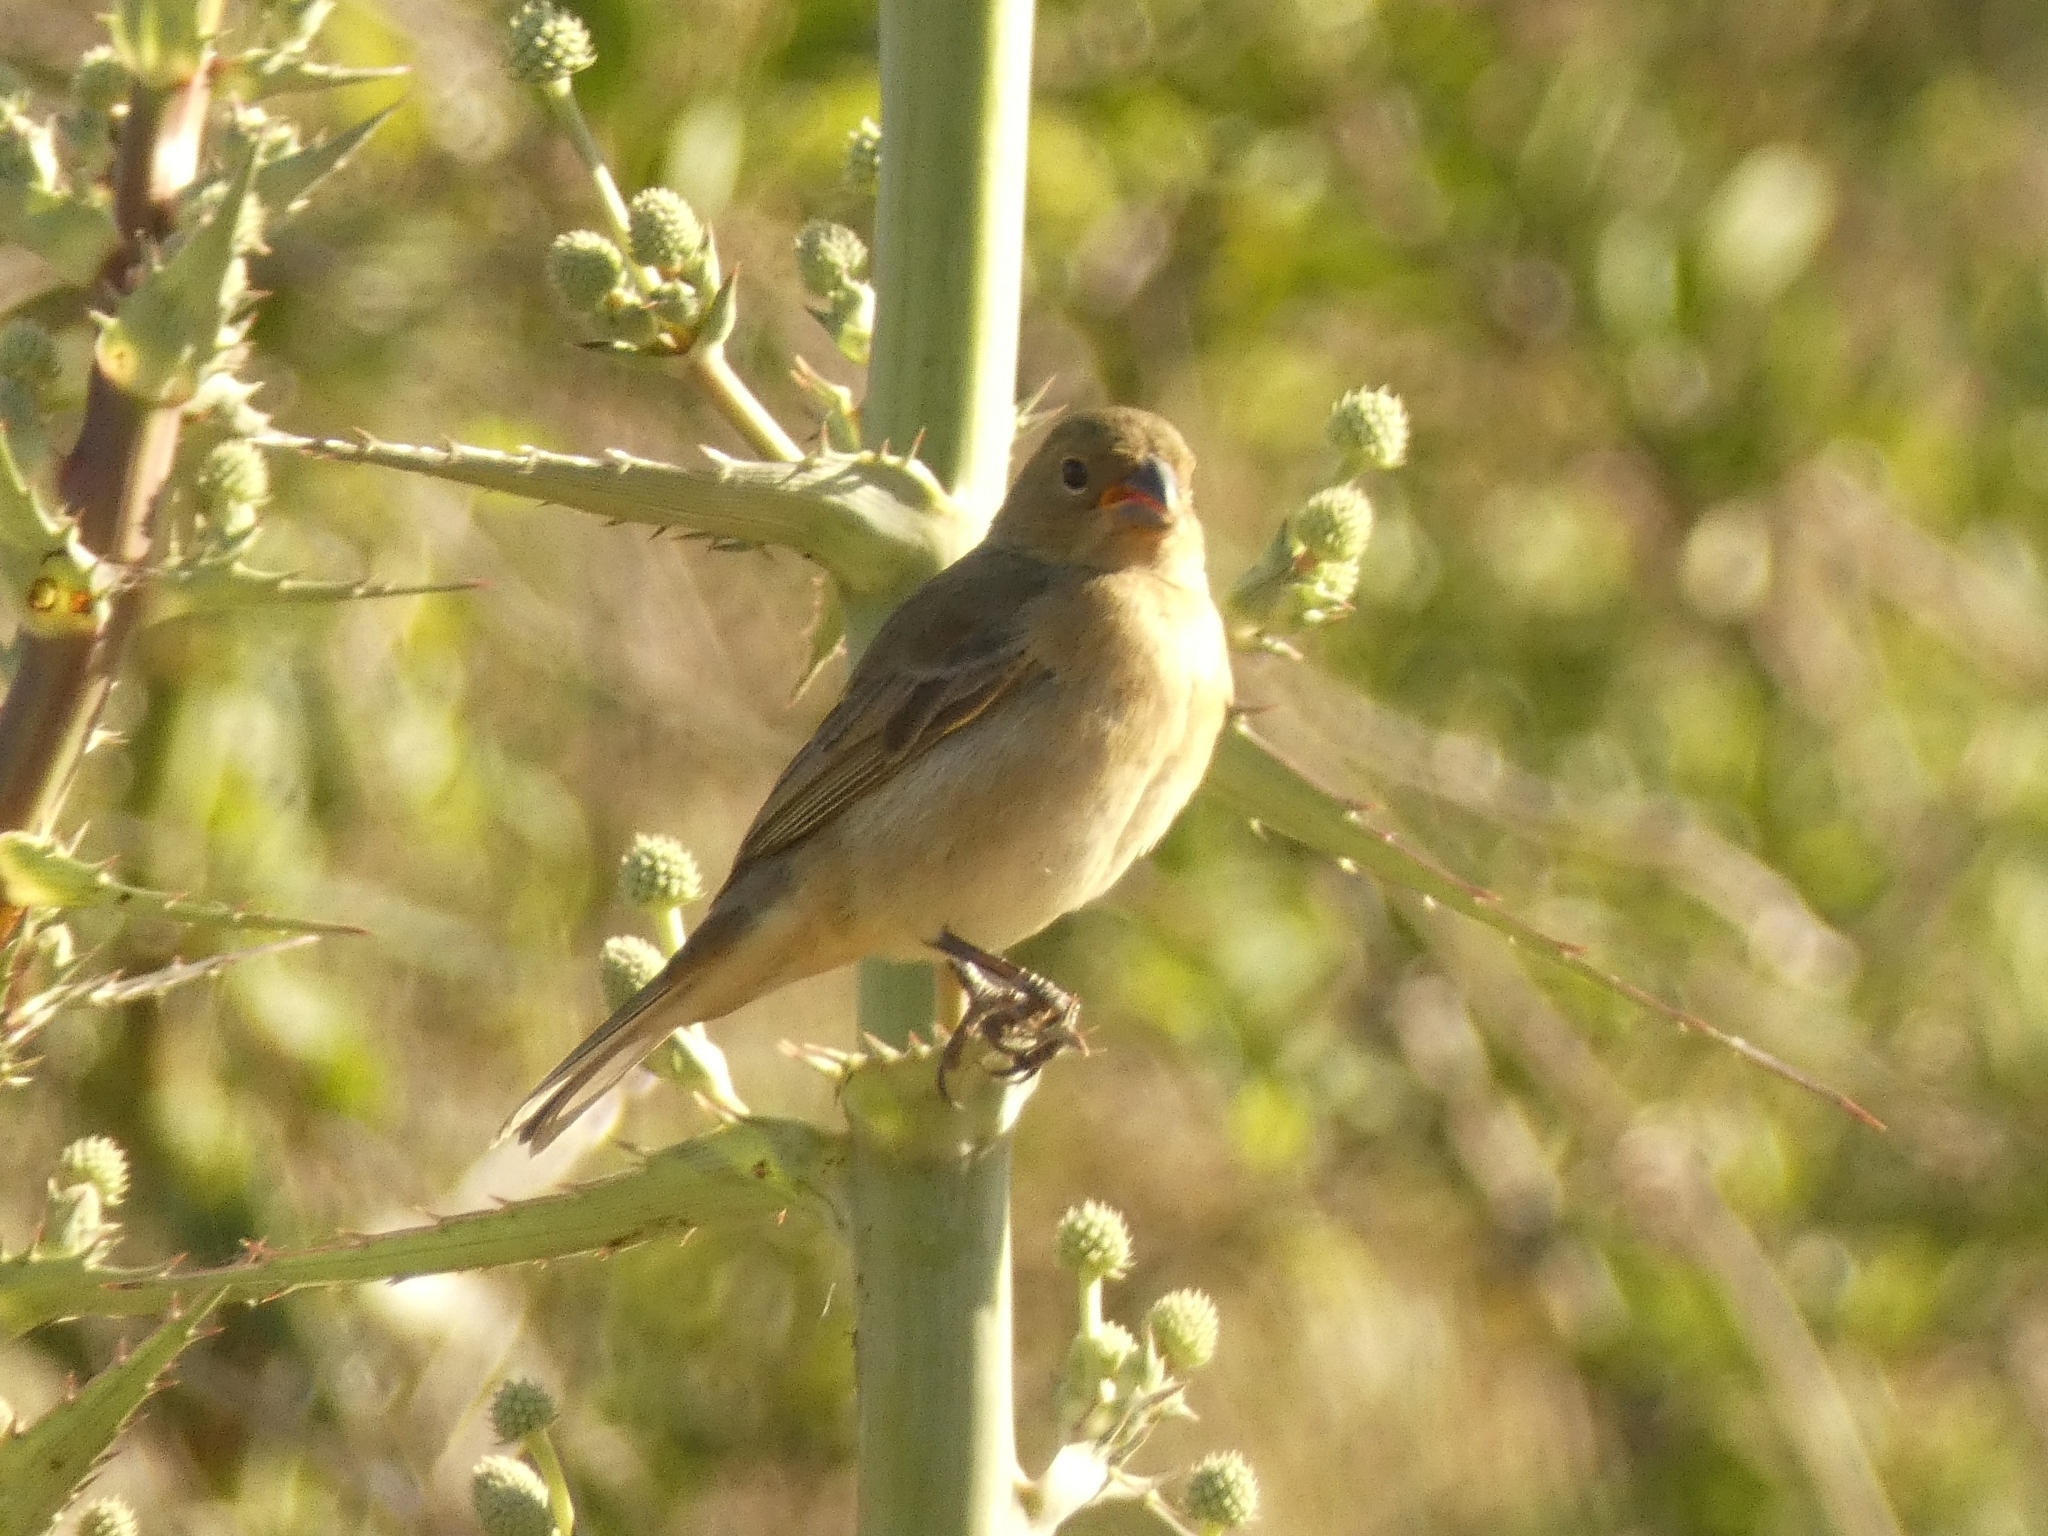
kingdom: Animalia
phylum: Chordata
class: Aves
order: Passeriformes
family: Thraupidae
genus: Sporophila
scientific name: Sporophila caerulescens
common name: Double-collared seedeater
